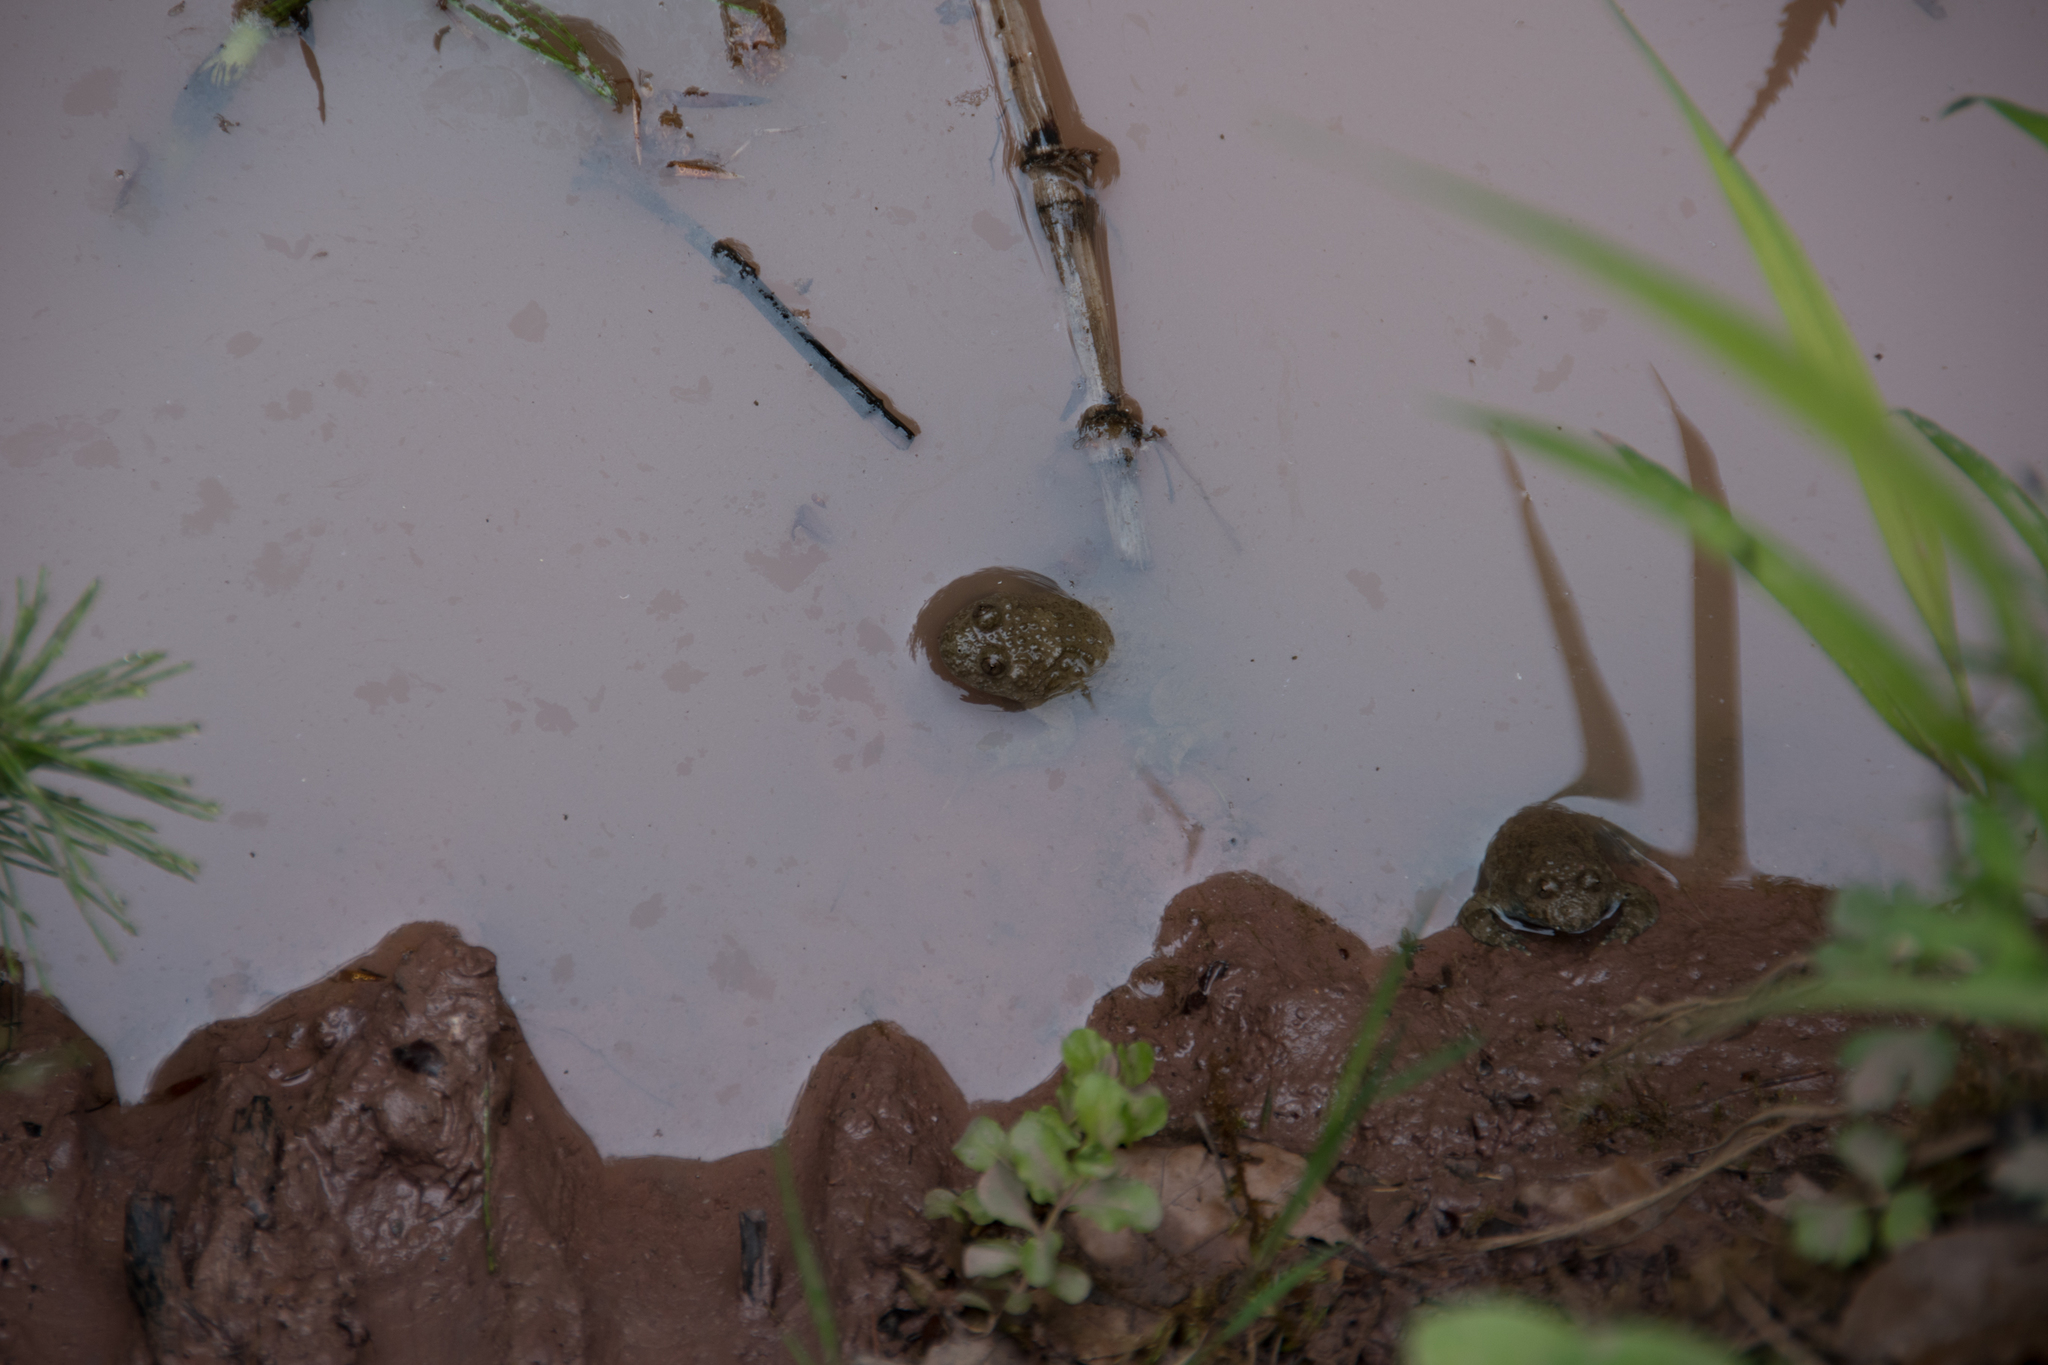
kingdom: Animalia
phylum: Chordata
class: Amphibia
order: Anura
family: Bombinatoridae
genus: Bombina
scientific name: Bombina variegata
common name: Yellow-bellied toad
